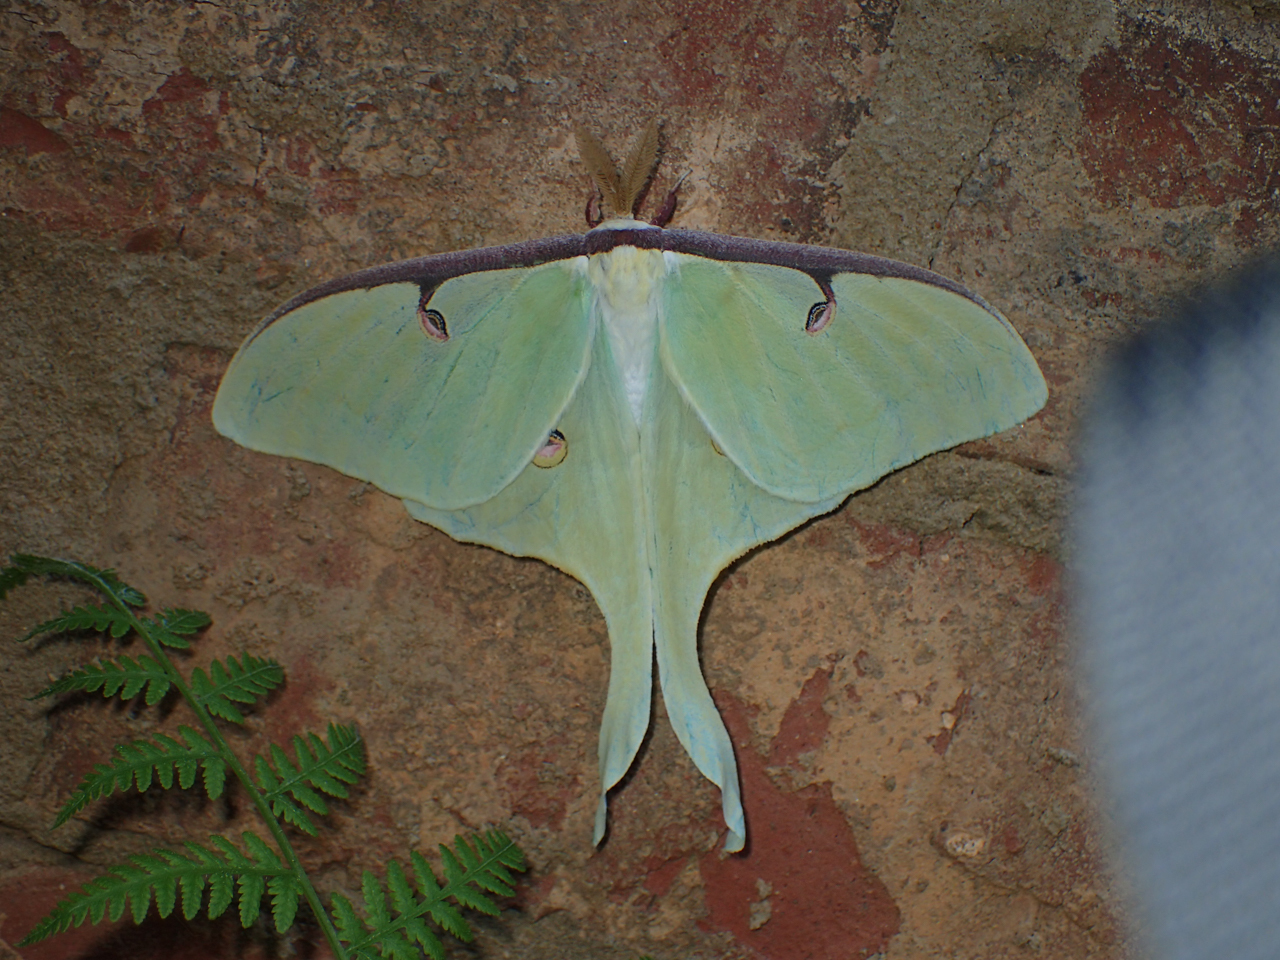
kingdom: Animalia
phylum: Arthropoda
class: Insecta
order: Lepidoptera
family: Saturniidae
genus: Actias
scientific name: Actias luna
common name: Luna moth
